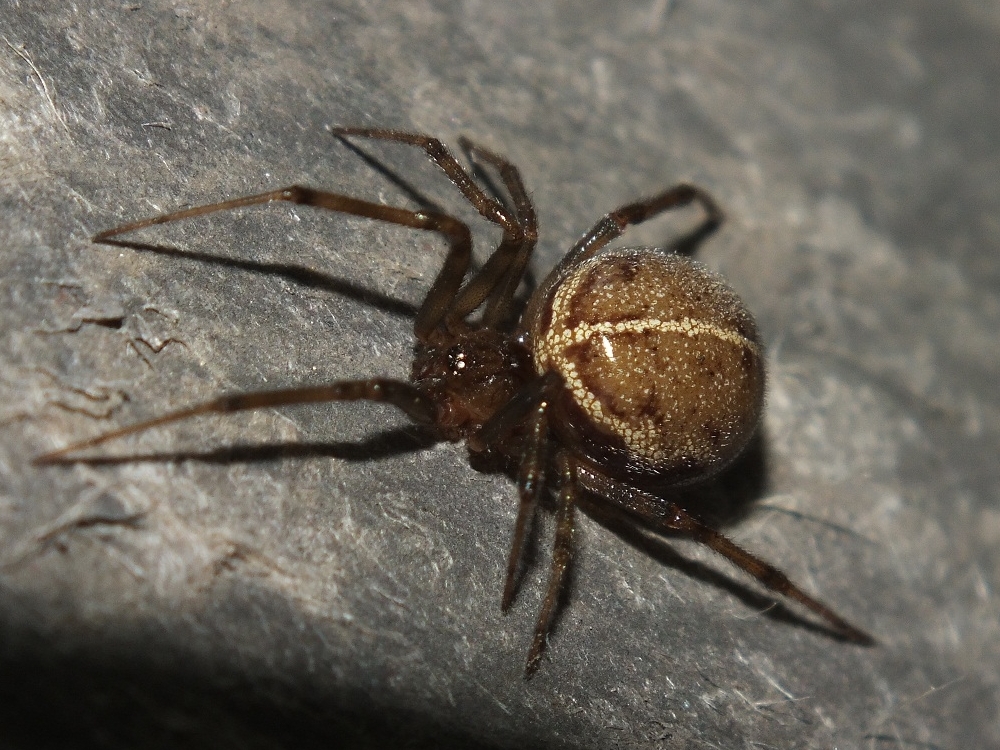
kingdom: Animalia
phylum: Arthropoda
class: Arachnida
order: Araneae
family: Theridiidae
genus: Steatoda
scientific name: Steatoda castanea
